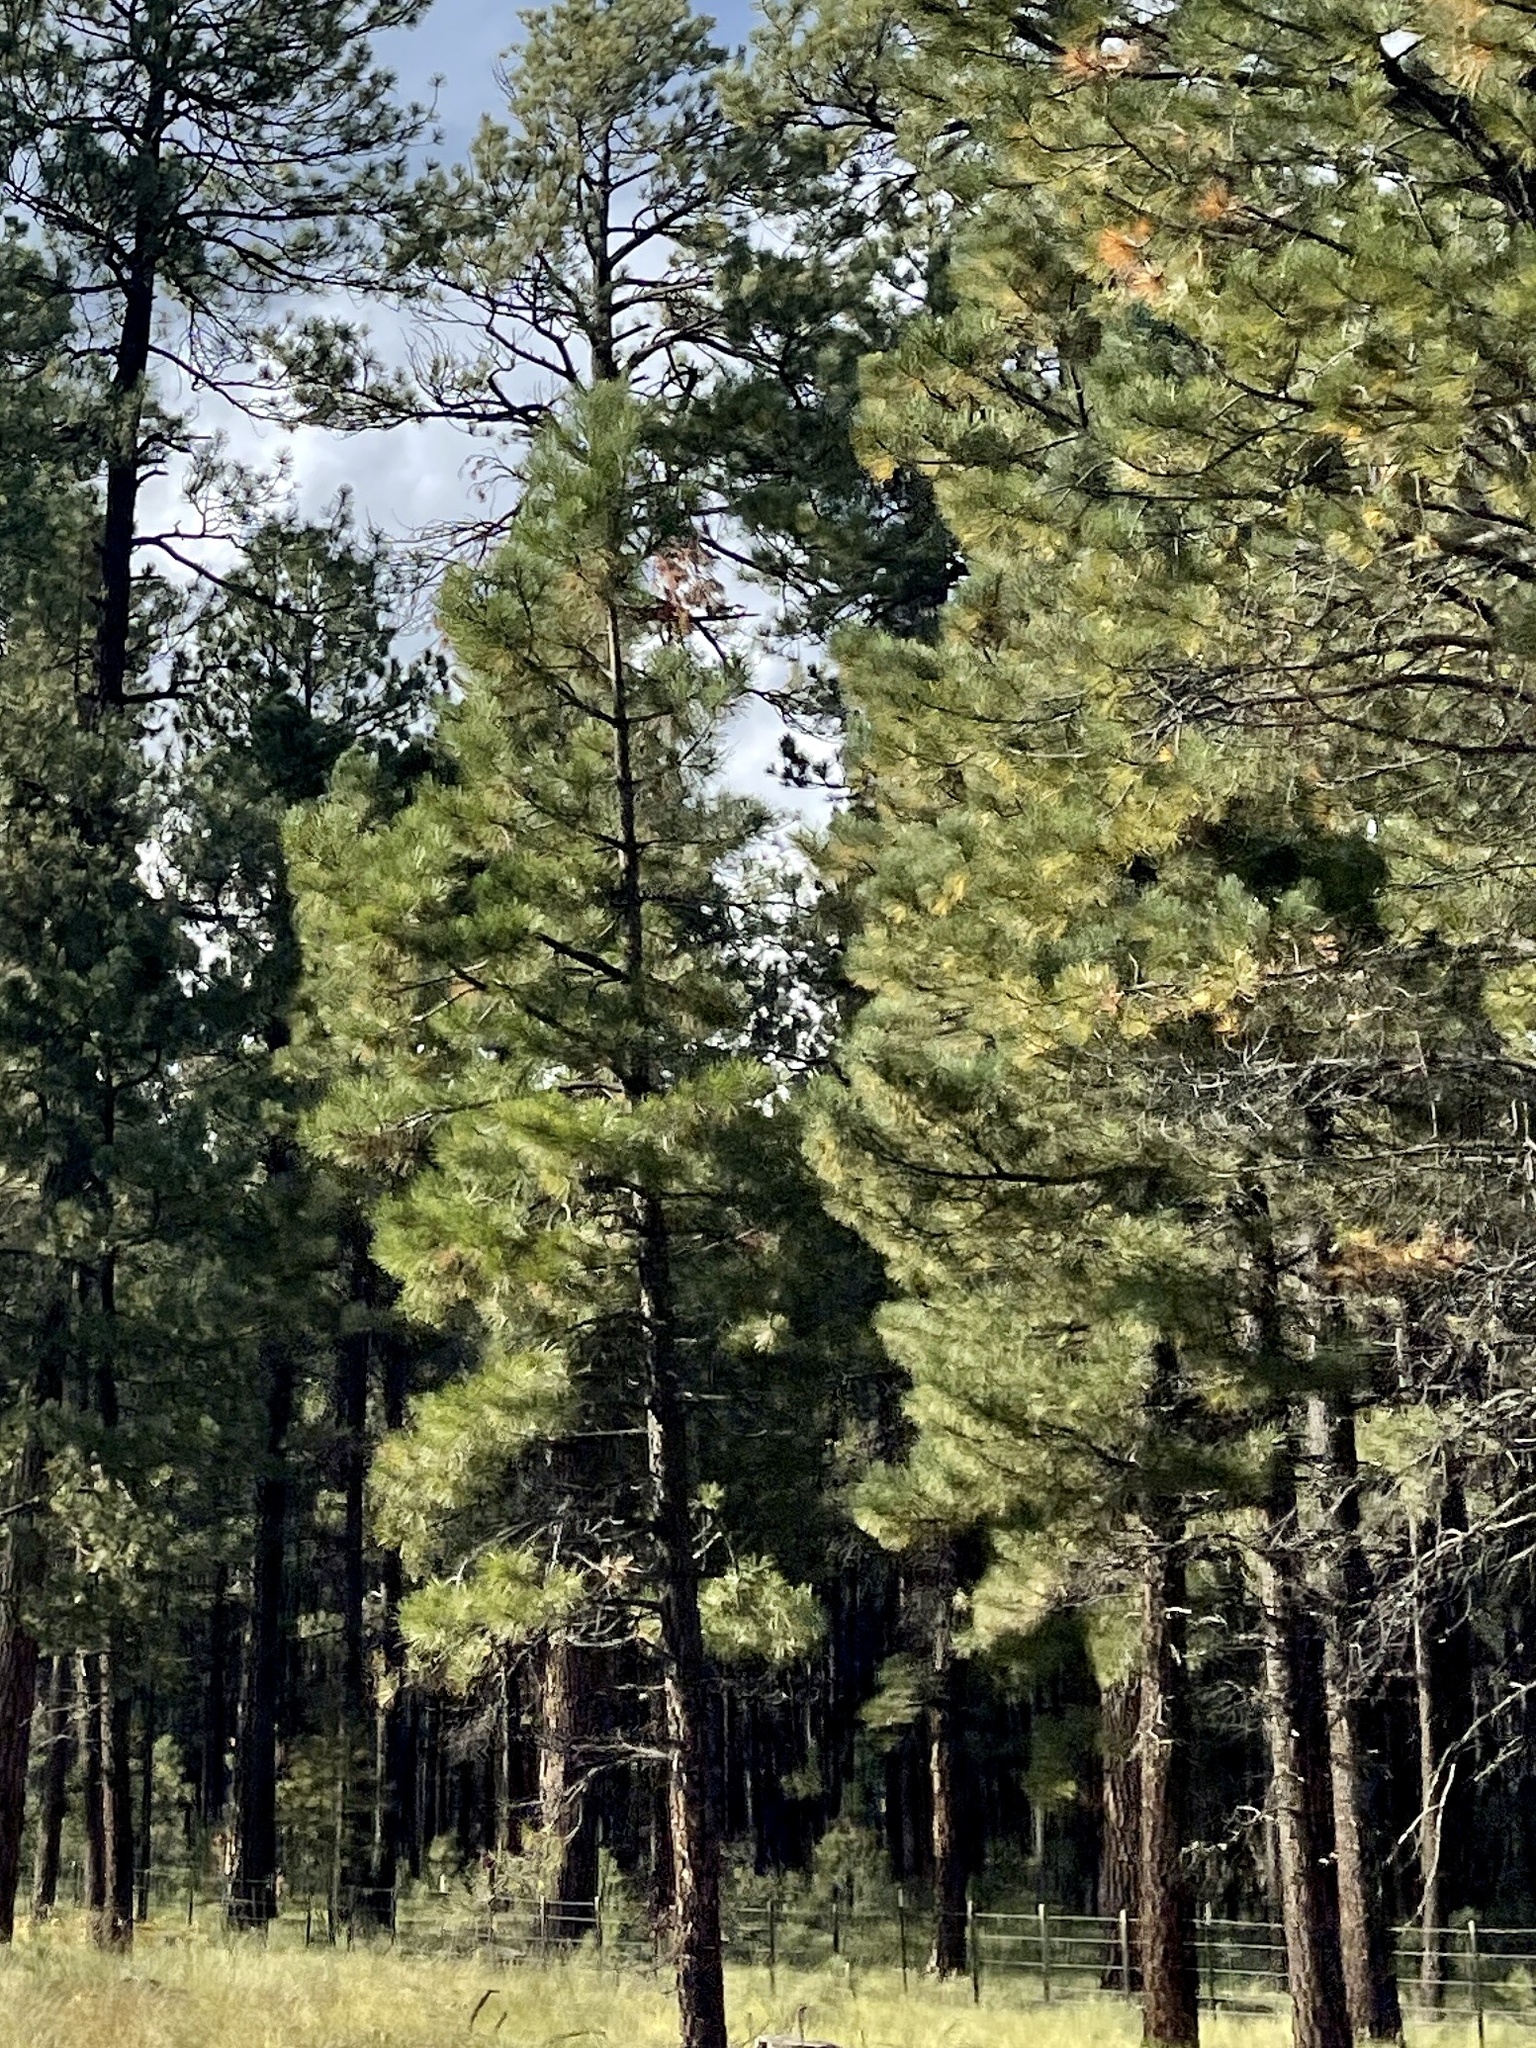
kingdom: Plantae
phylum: Tracheophyta
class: Pinopsida
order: Pinales
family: Pinaceae
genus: Pinus
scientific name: Pinus ponderosa
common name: Western yellow-pine
